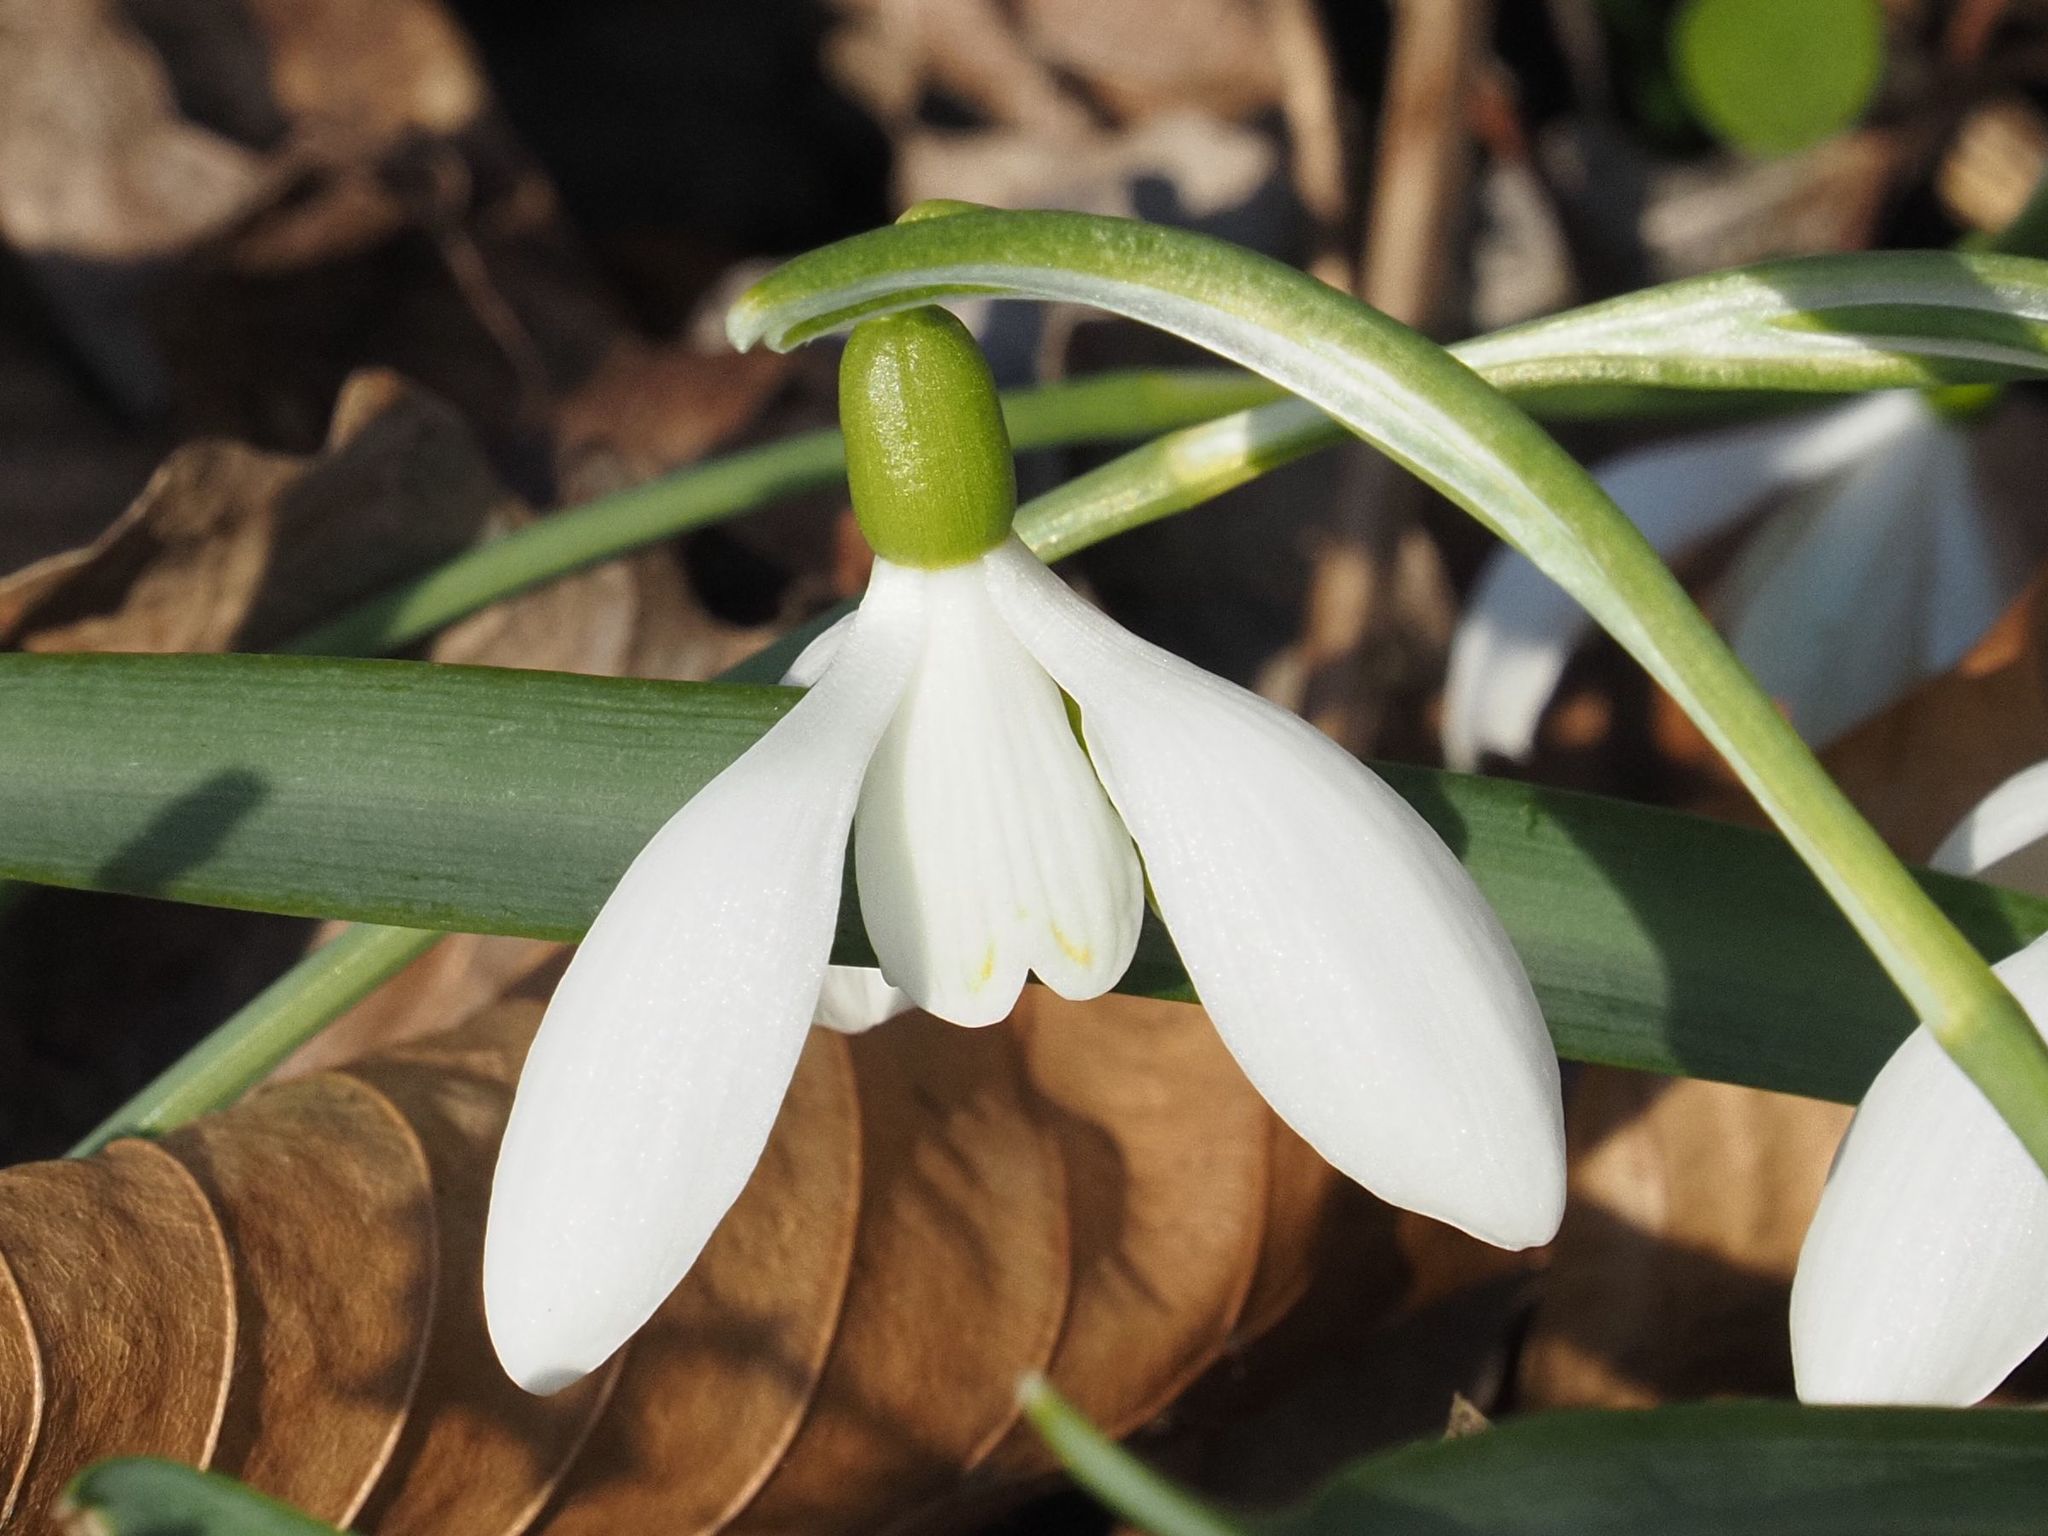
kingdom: Plantae
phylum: Tracheophyta
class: Liliopsida
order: Asparagales
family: Amaryllidaceae
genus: Galanthus
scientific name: Galanthus nivalis
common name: Snowdrop
